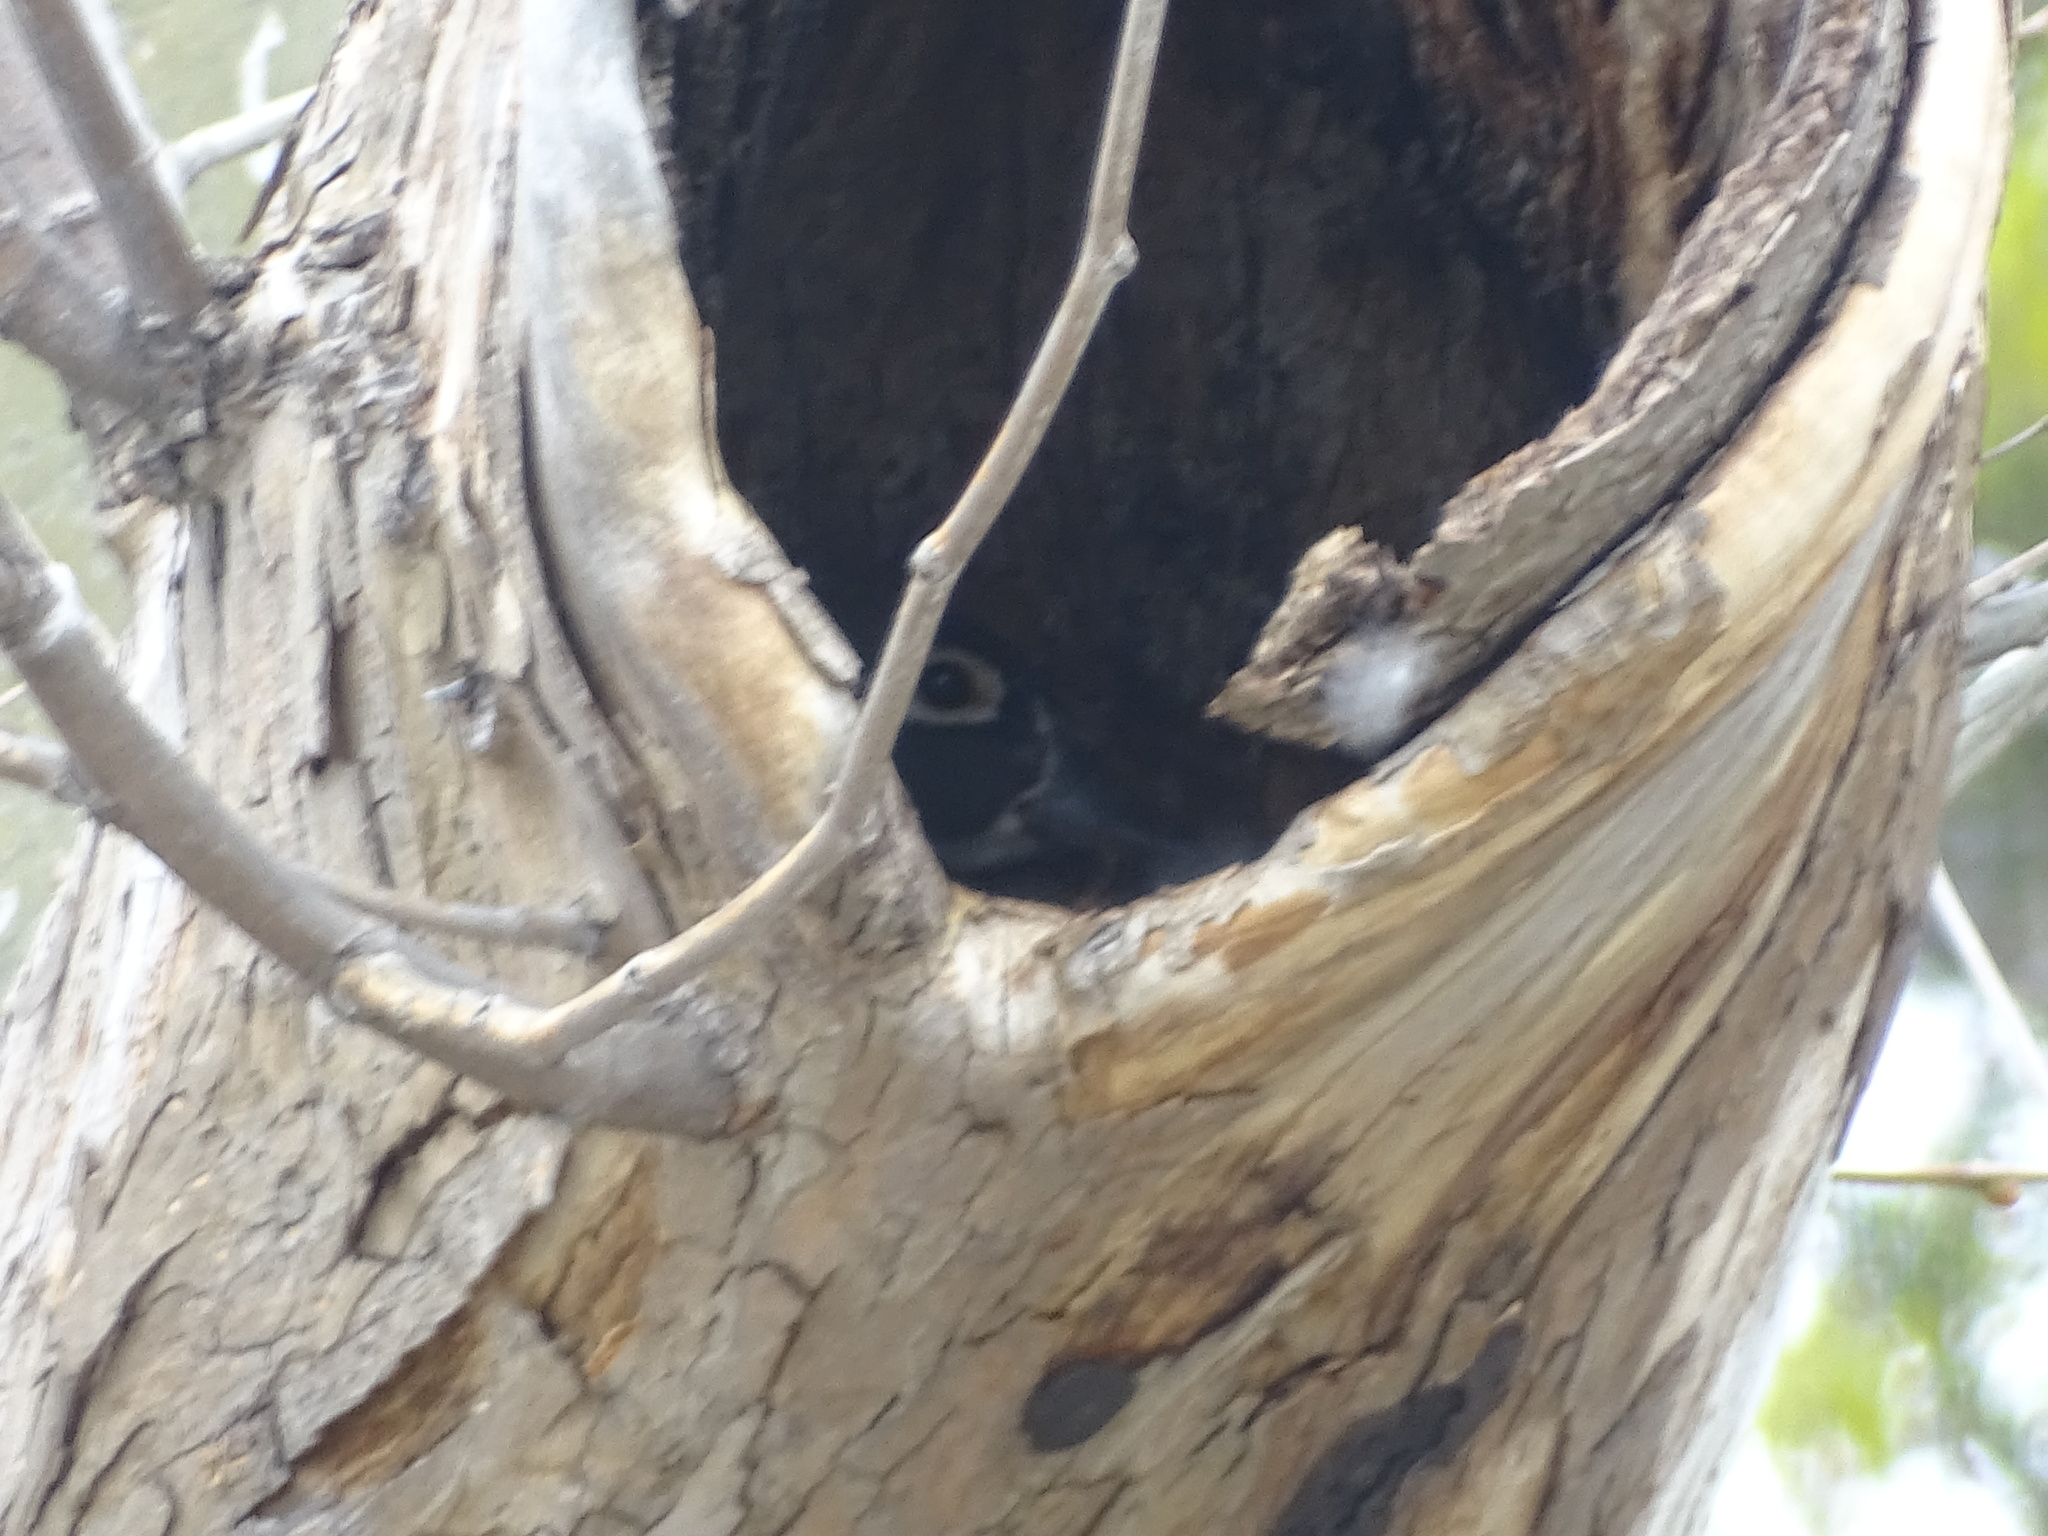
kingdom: Animalia
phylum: Chordata
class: Aves
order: Anseriformes
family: Anatidae
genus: Aix
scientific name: Aix sponsa
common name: Wood duck
